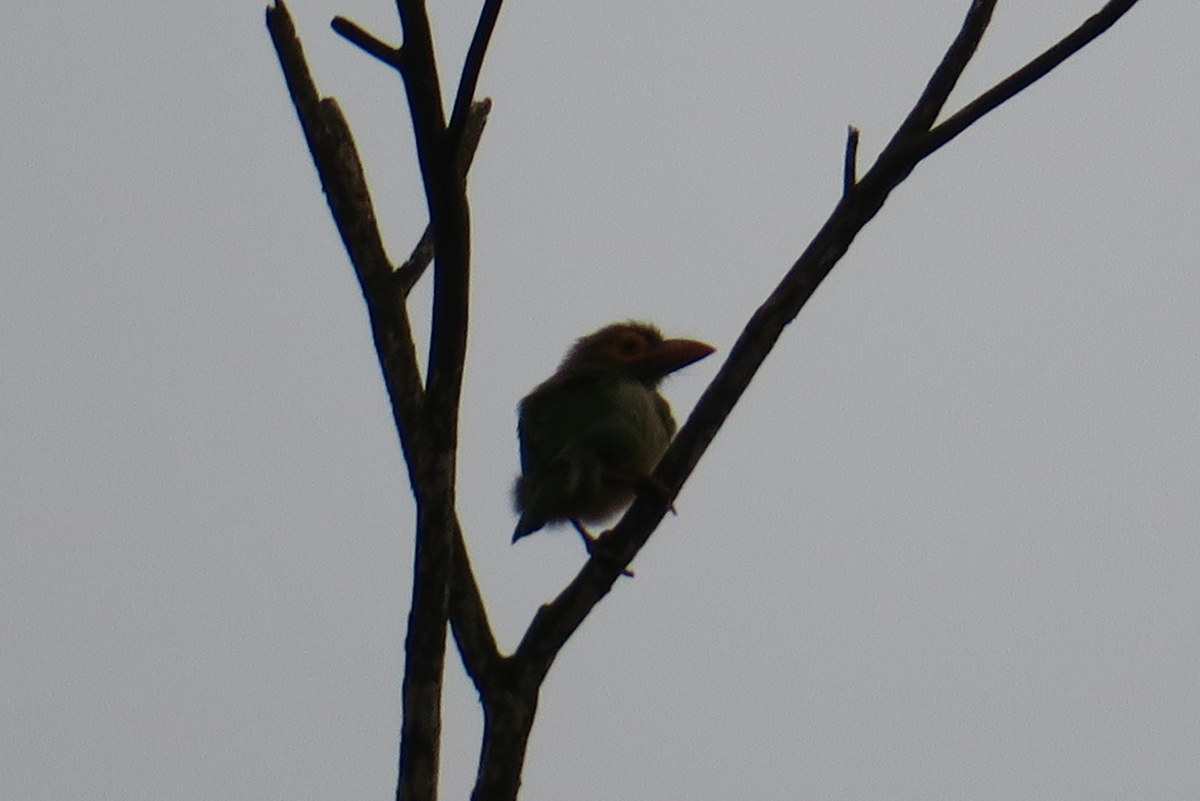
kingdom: Animalia
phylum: Chordata
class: Aves
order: Piciformes
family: Megalaimidae
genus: Psilopogon
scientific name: Psilopogon zeylanicus
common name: Brown-headed barbet
